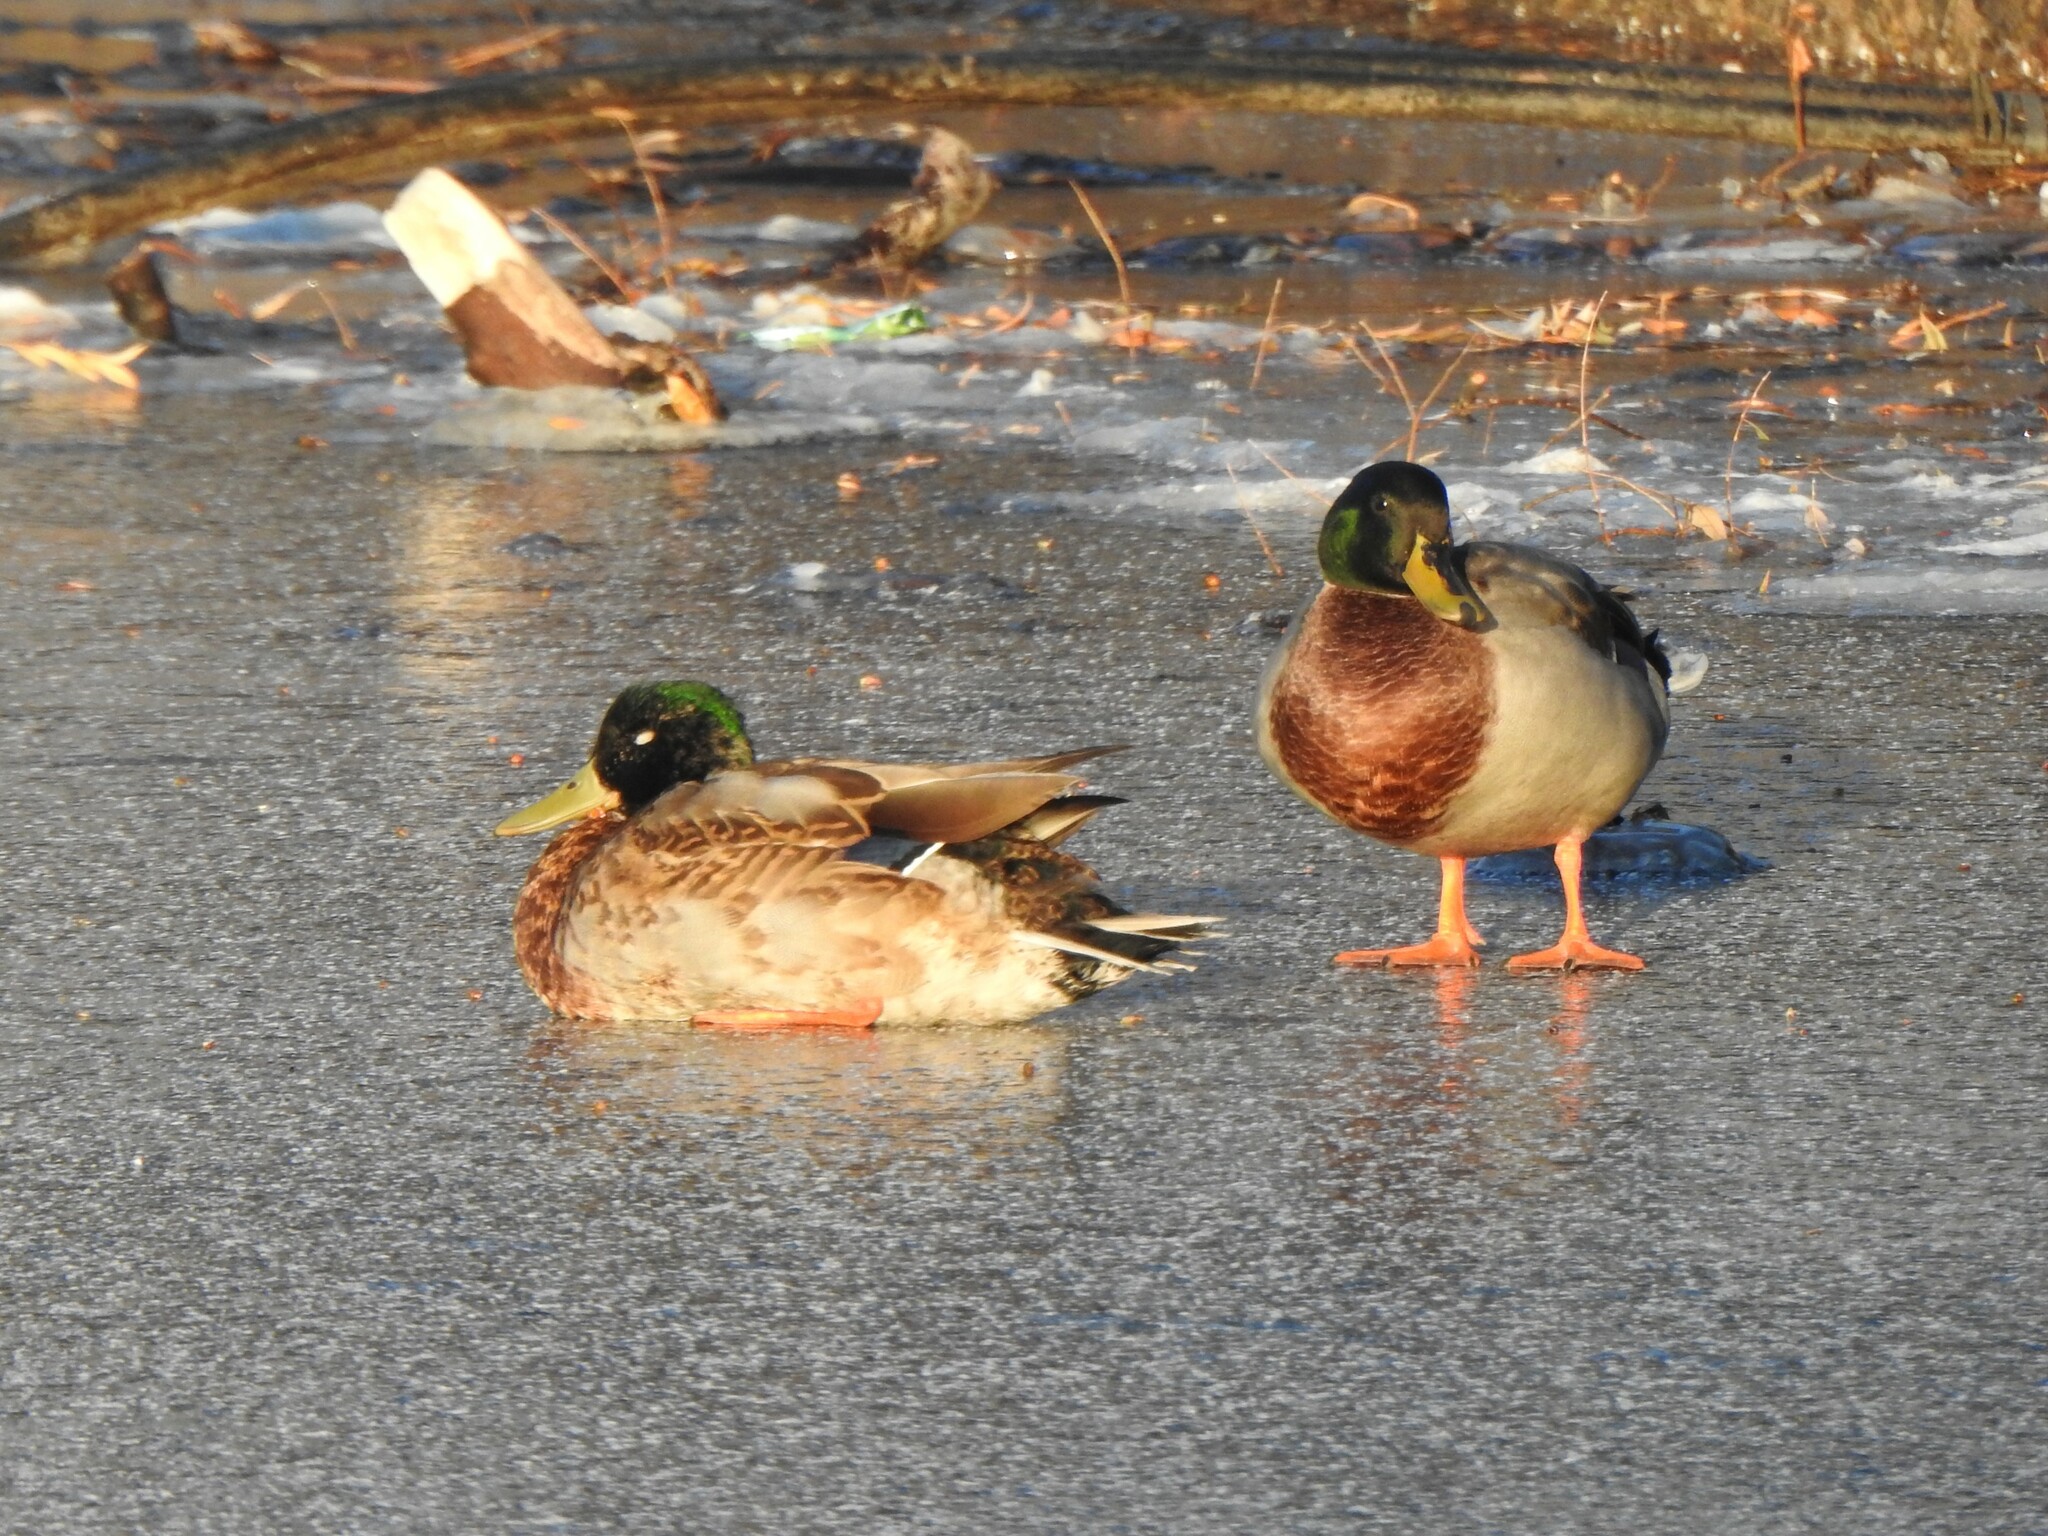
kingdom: Animalia
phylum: Chordata
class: Aves
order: Anseriformes
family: Anatidae
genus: Anas
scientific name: Anas platyrhynchos
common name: Mallard
